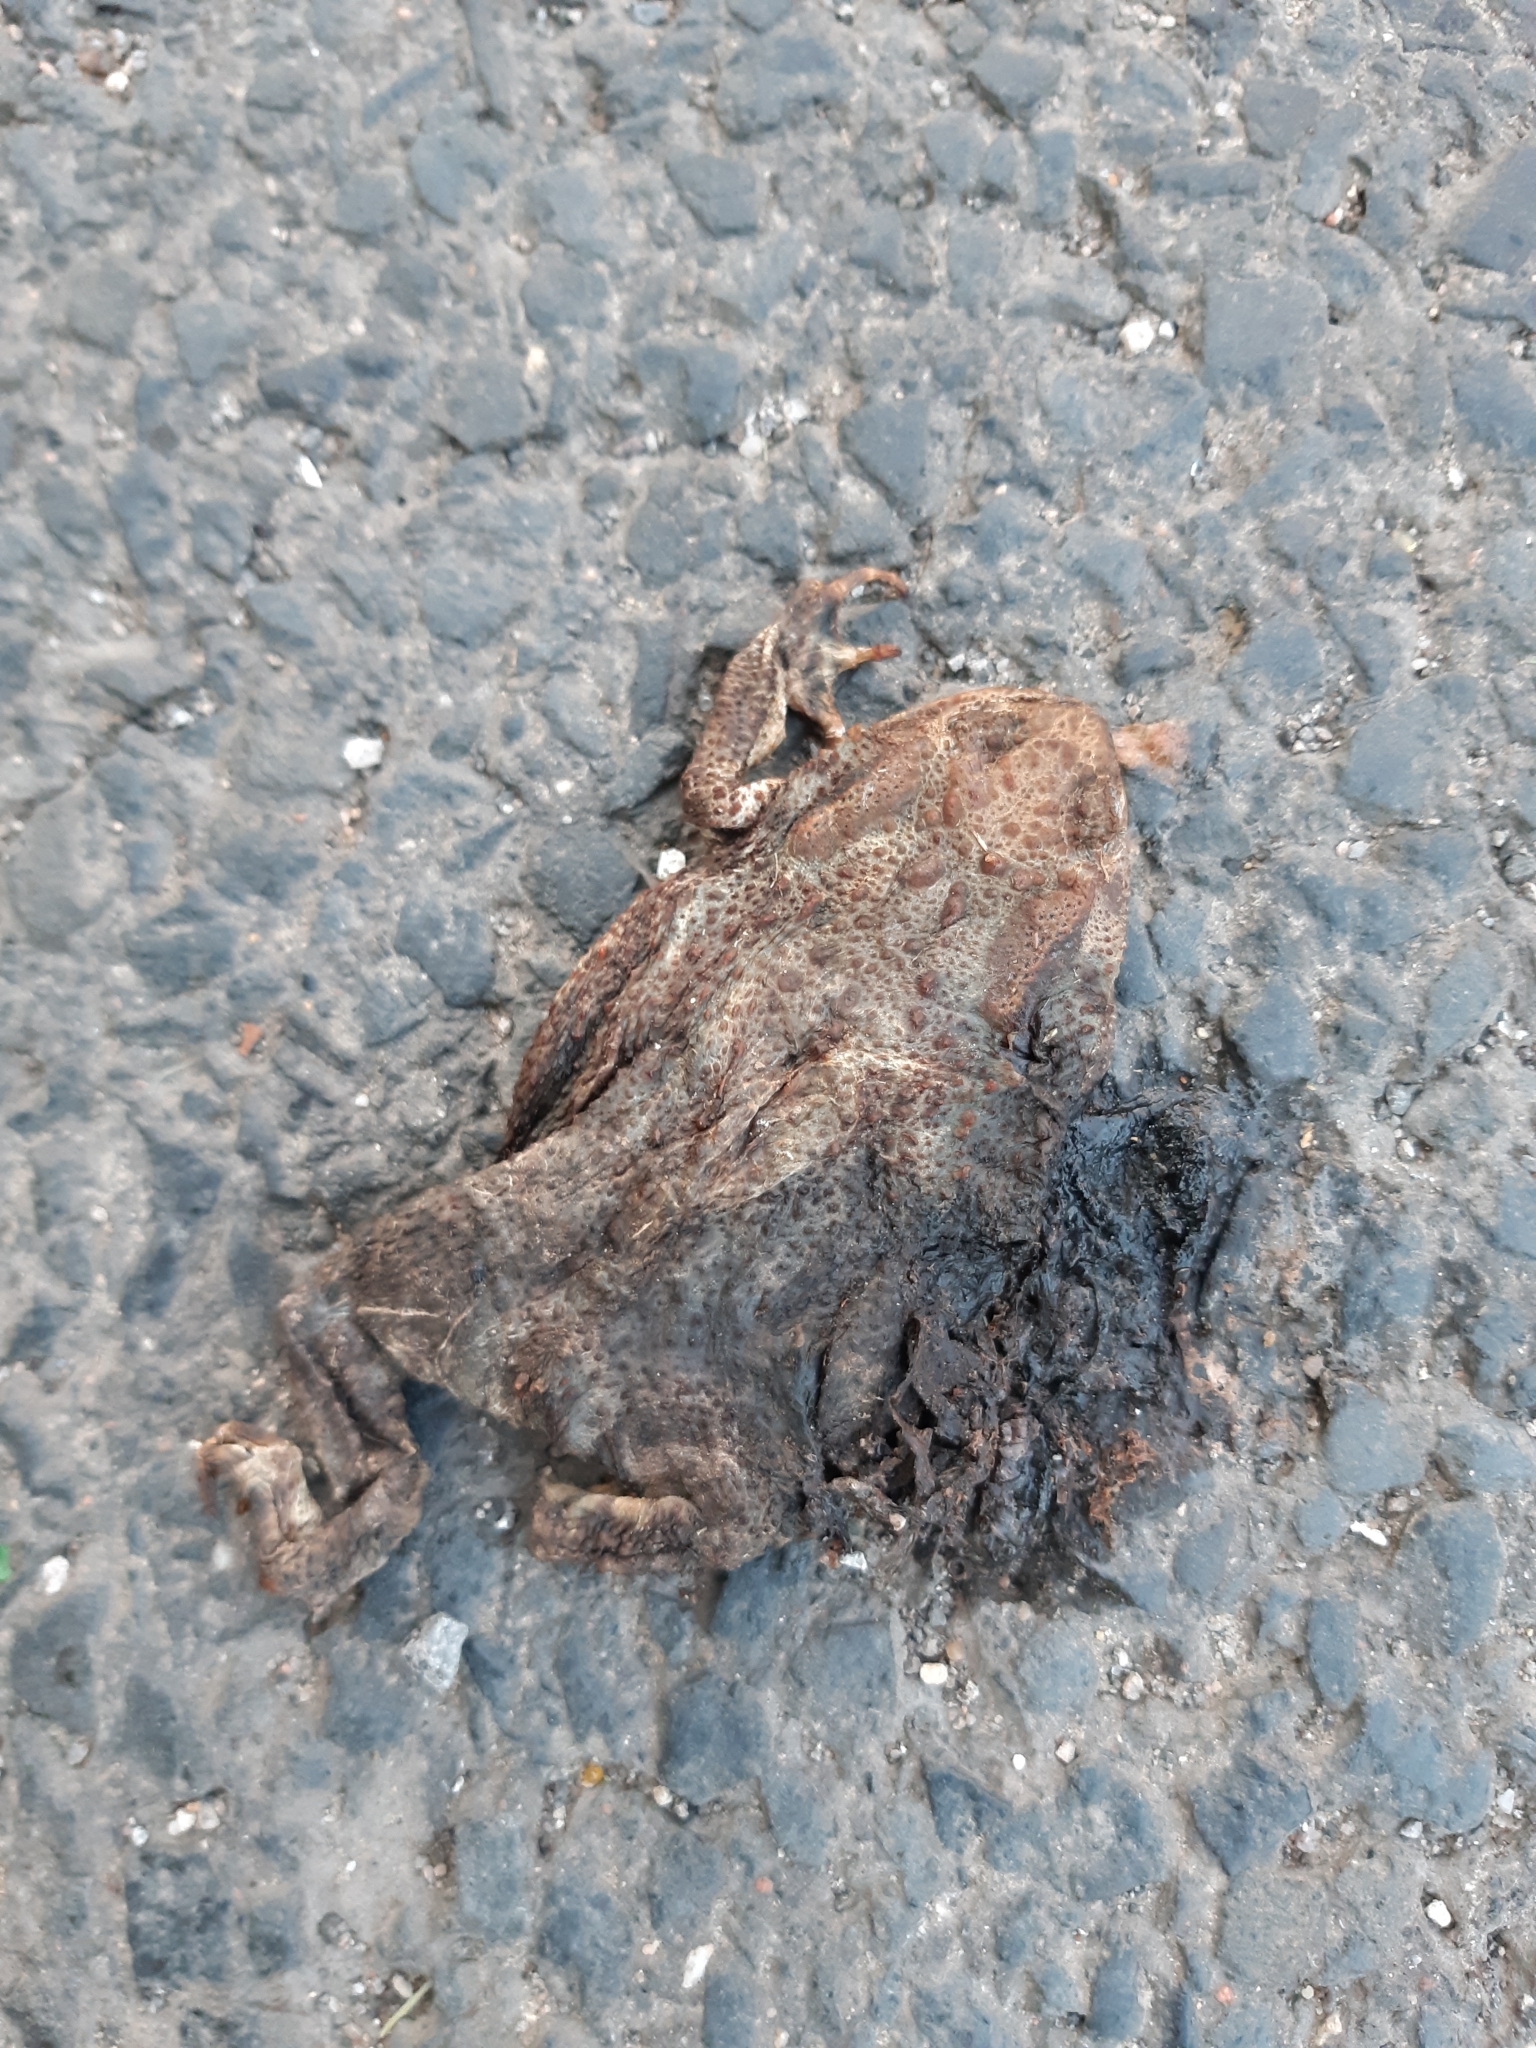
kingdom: Animalia
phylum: Chordata
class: Amphibia
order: Anura
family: Bufonidae
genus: Bufo
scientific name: Bufo bufo
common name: Common toad
